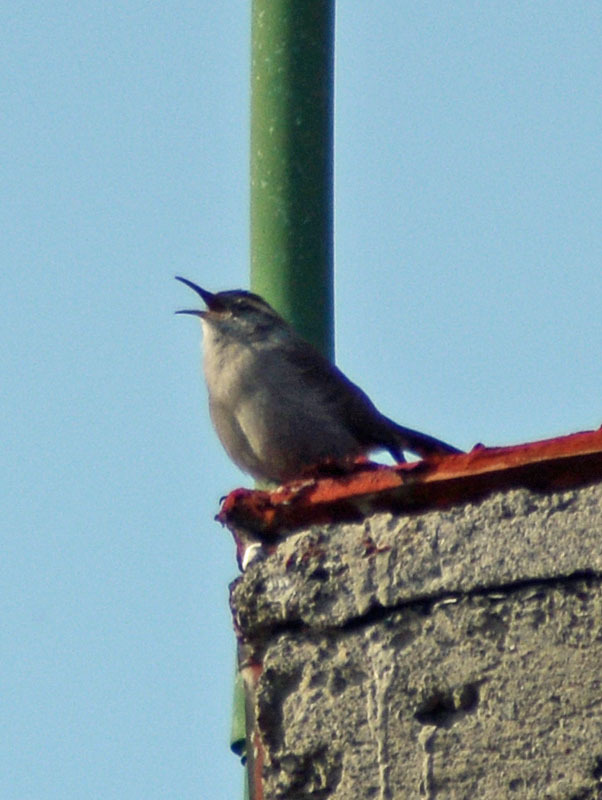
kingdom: Animalia
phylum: Chordata
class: Aves
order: Passeriformes
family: Troglodytidae
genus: Thryomanes
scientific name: Thryomanes bewickii
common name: Bewick's wren
